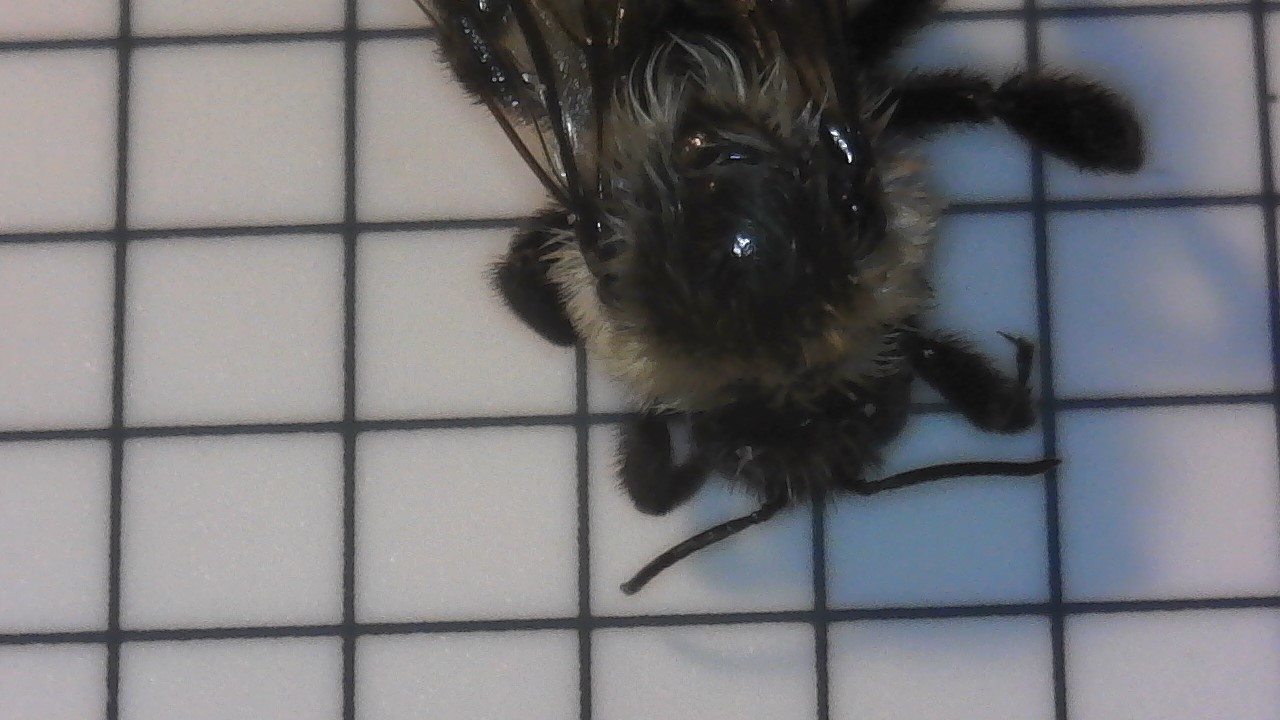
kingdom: Animalia
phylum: Arthropoda
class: Insecta
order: Hymenoptera
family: Apidae
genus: Bombus
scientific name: Bombus impatiens
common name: Common eastern bumble bee
